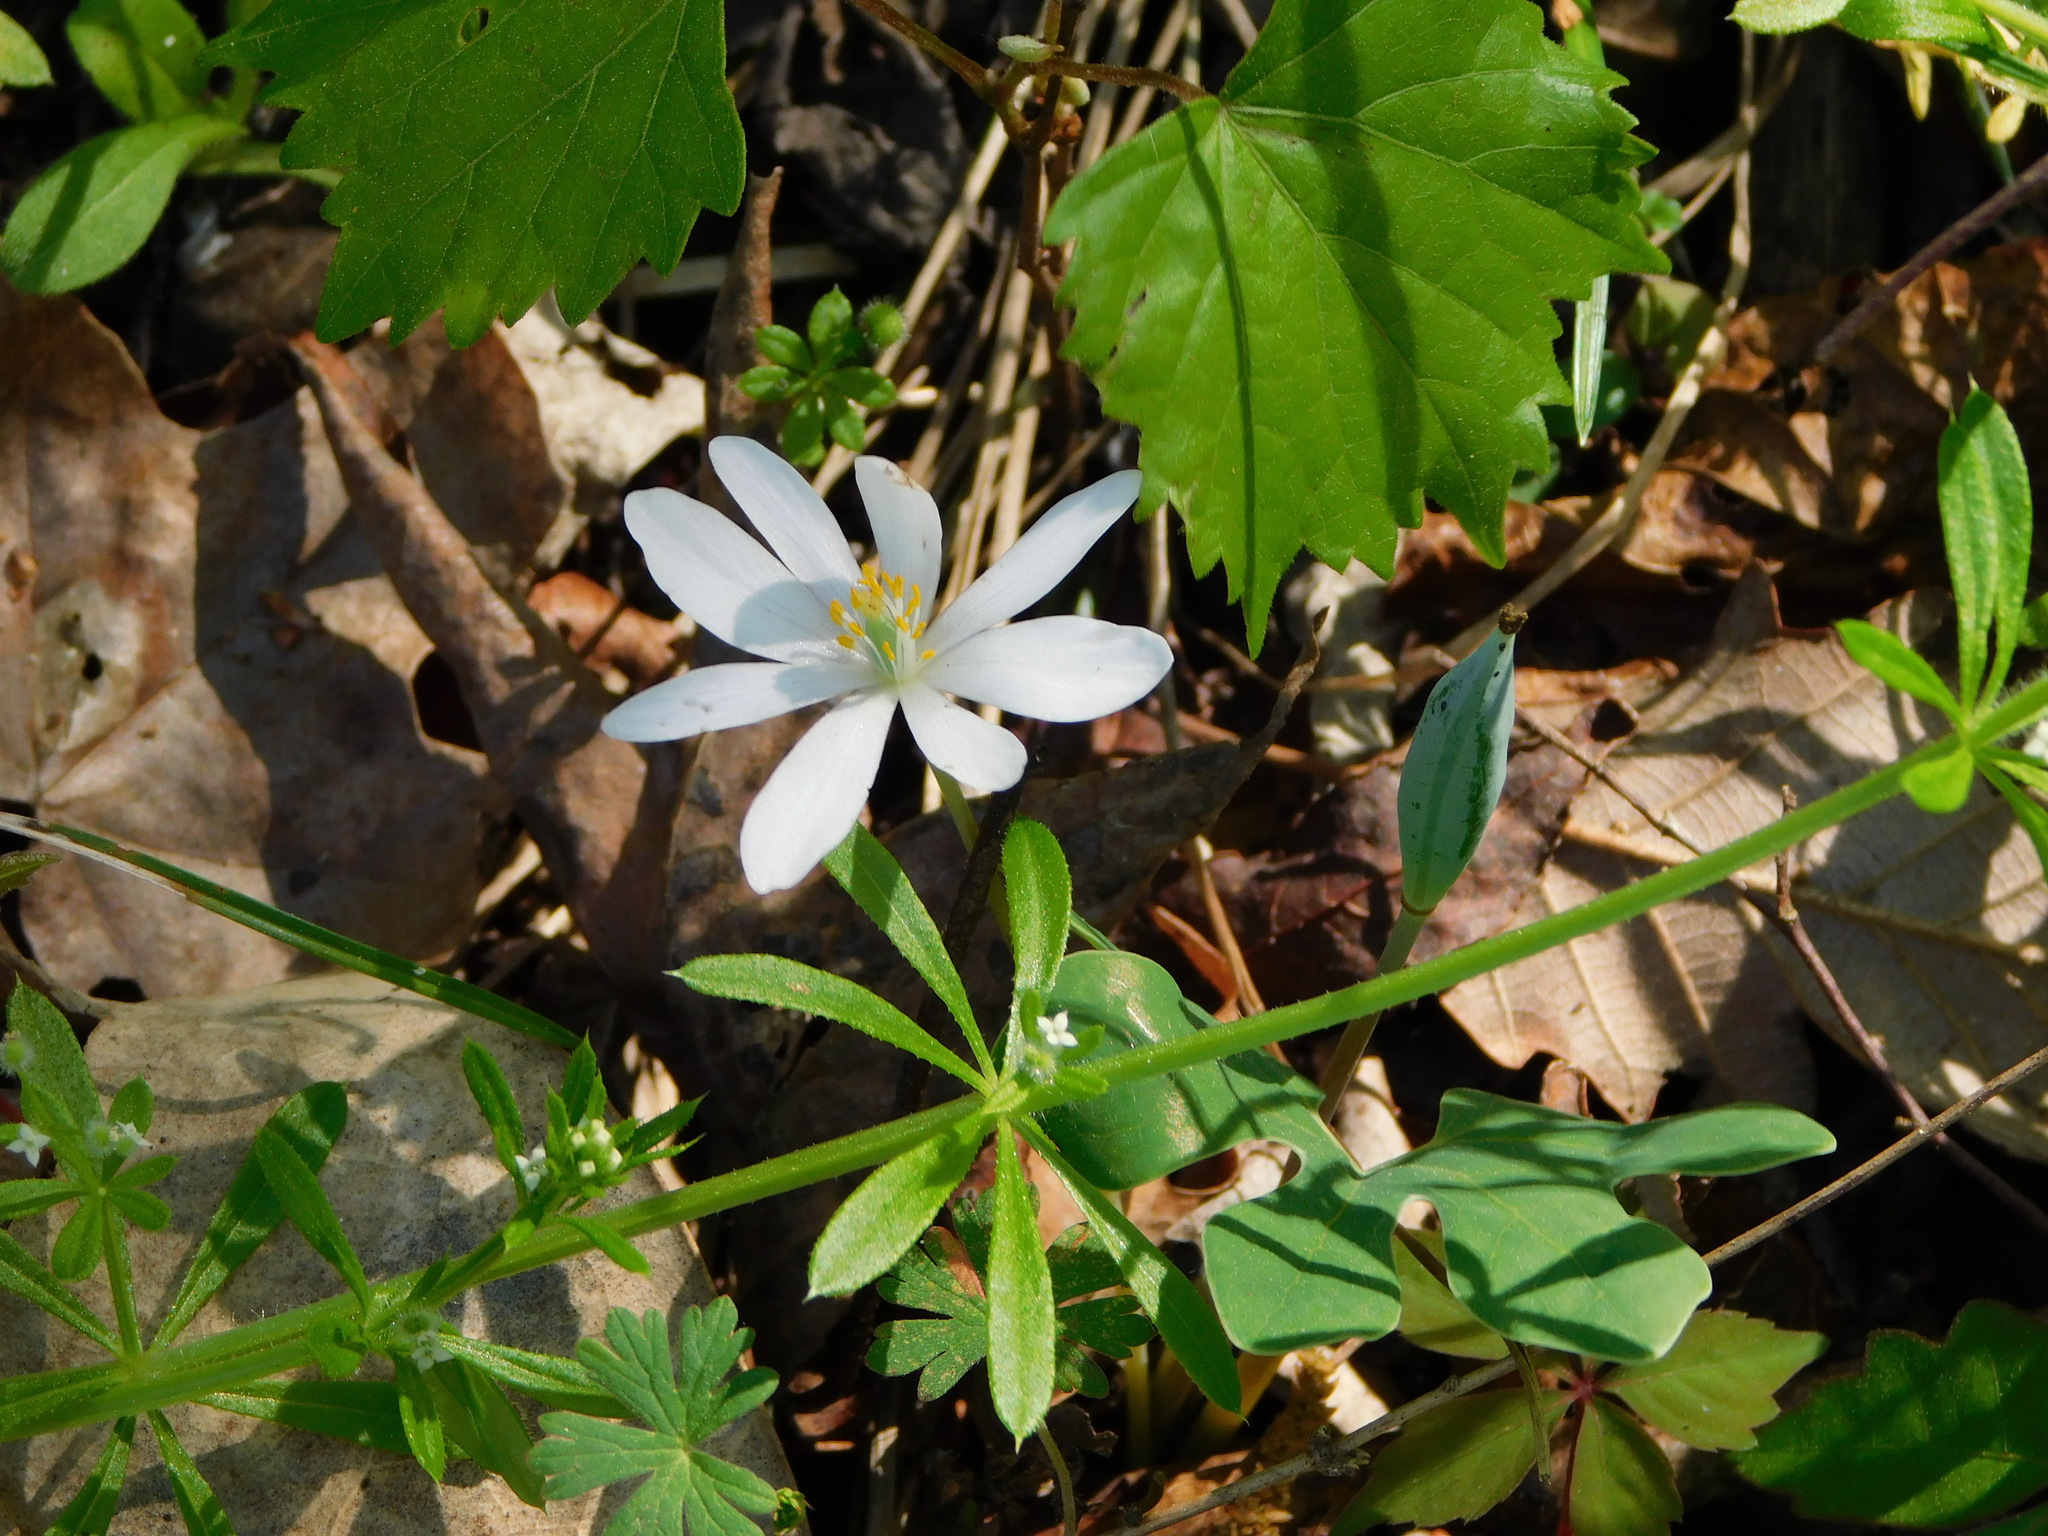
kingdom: Plantae
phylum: Tracheophyta
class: Magnoliopsida
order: Ranunculales
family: Papaveraceae
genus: Sanguinaria
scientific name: Sanguinaria canadensis
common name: Bloodroot
